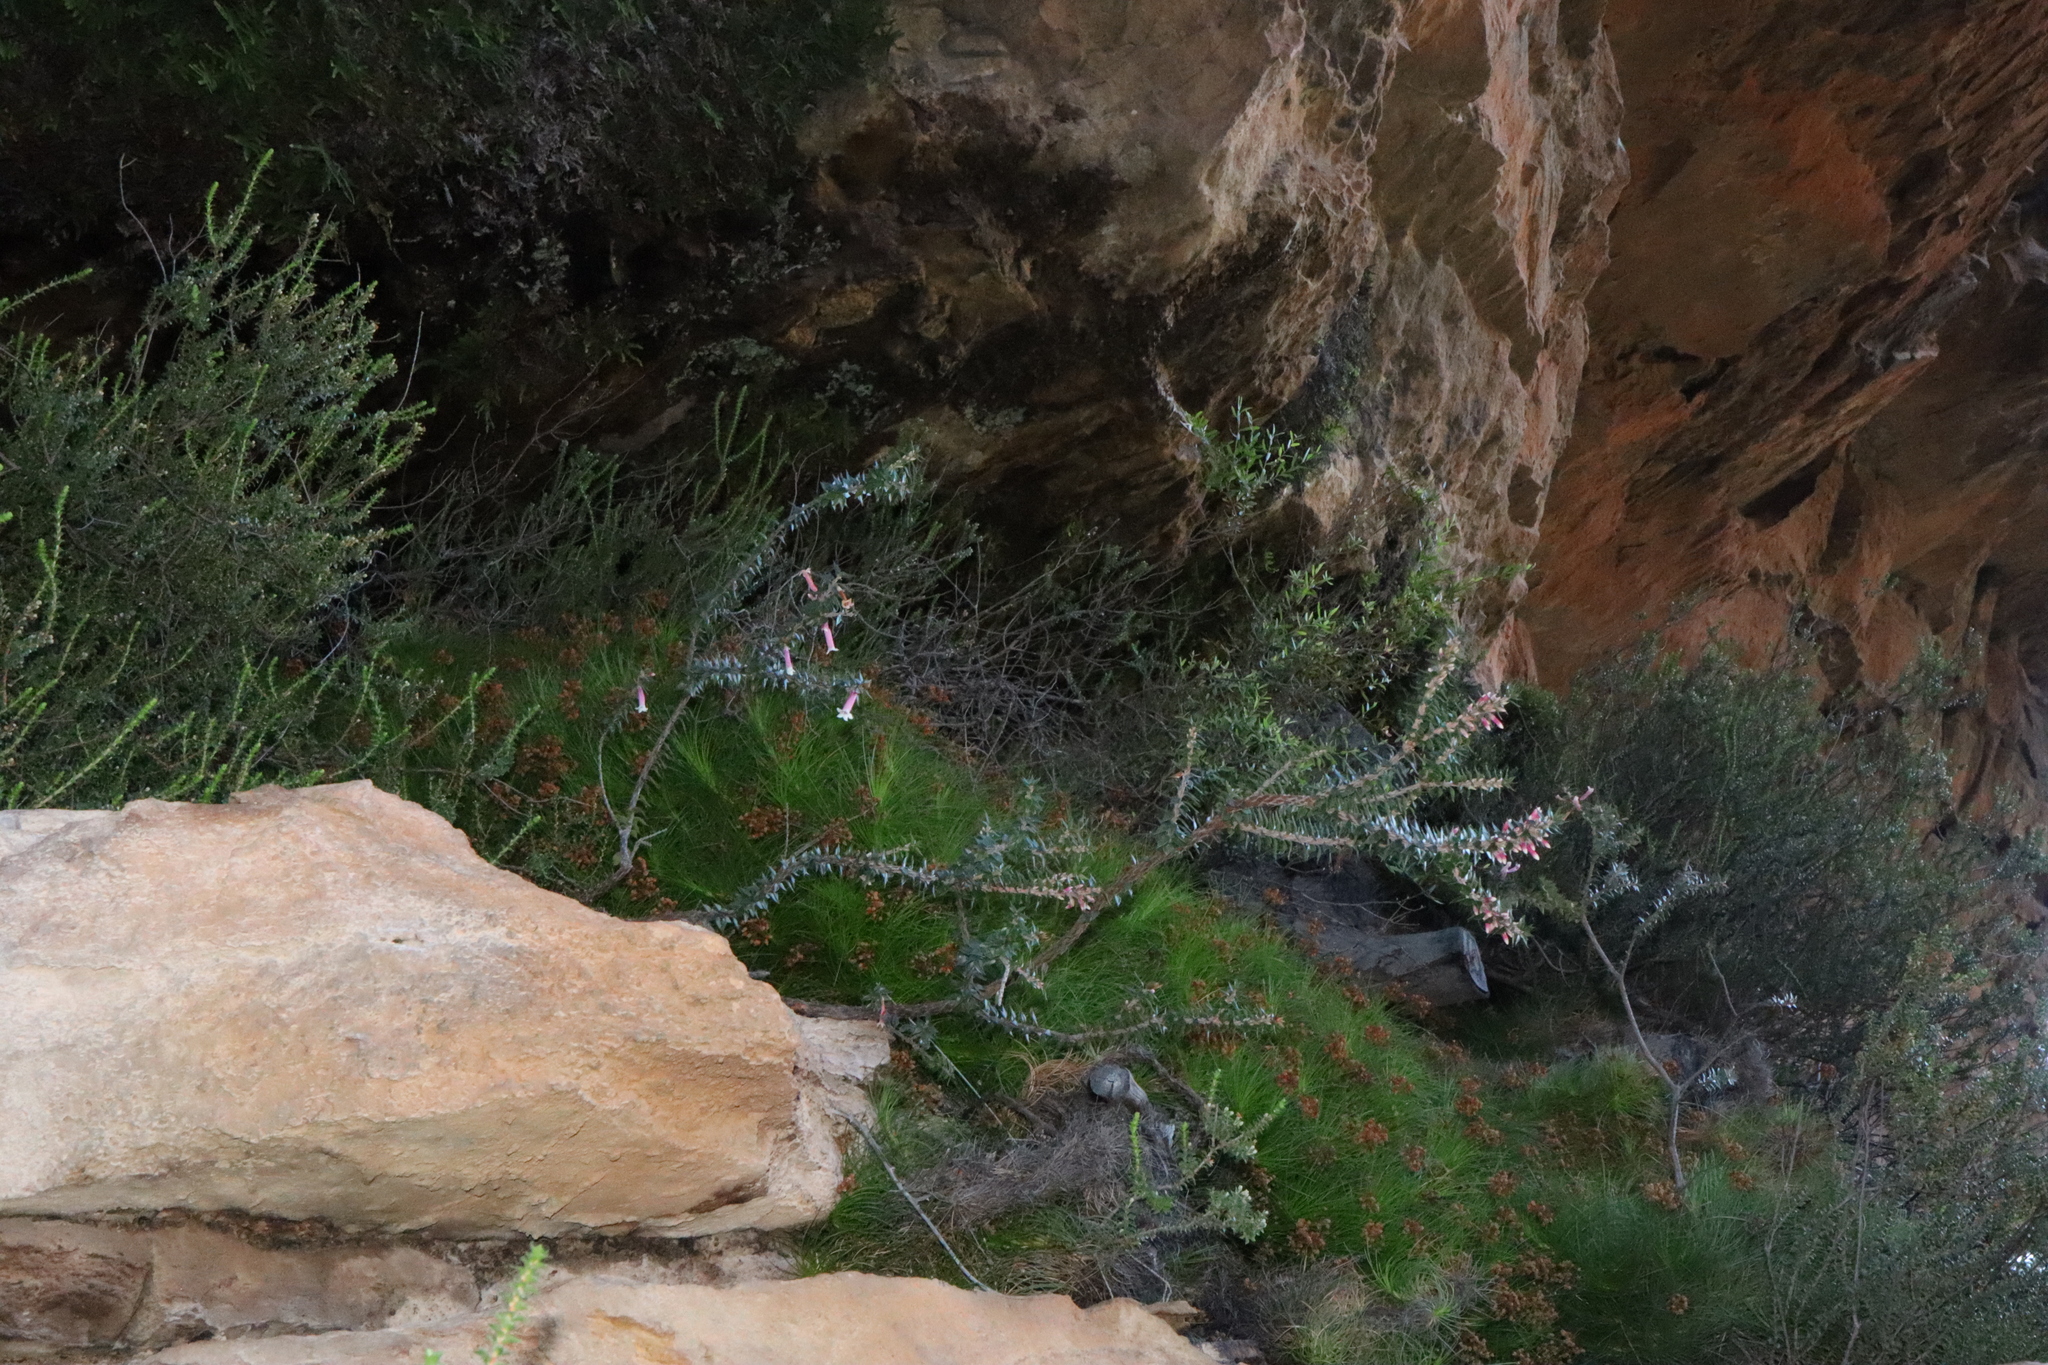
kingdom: Plantae
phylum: Tracheophyta
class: Magnoliopsida
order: Ericales
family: Ericaceae
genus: Epacris
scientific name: Epacris reclinata
